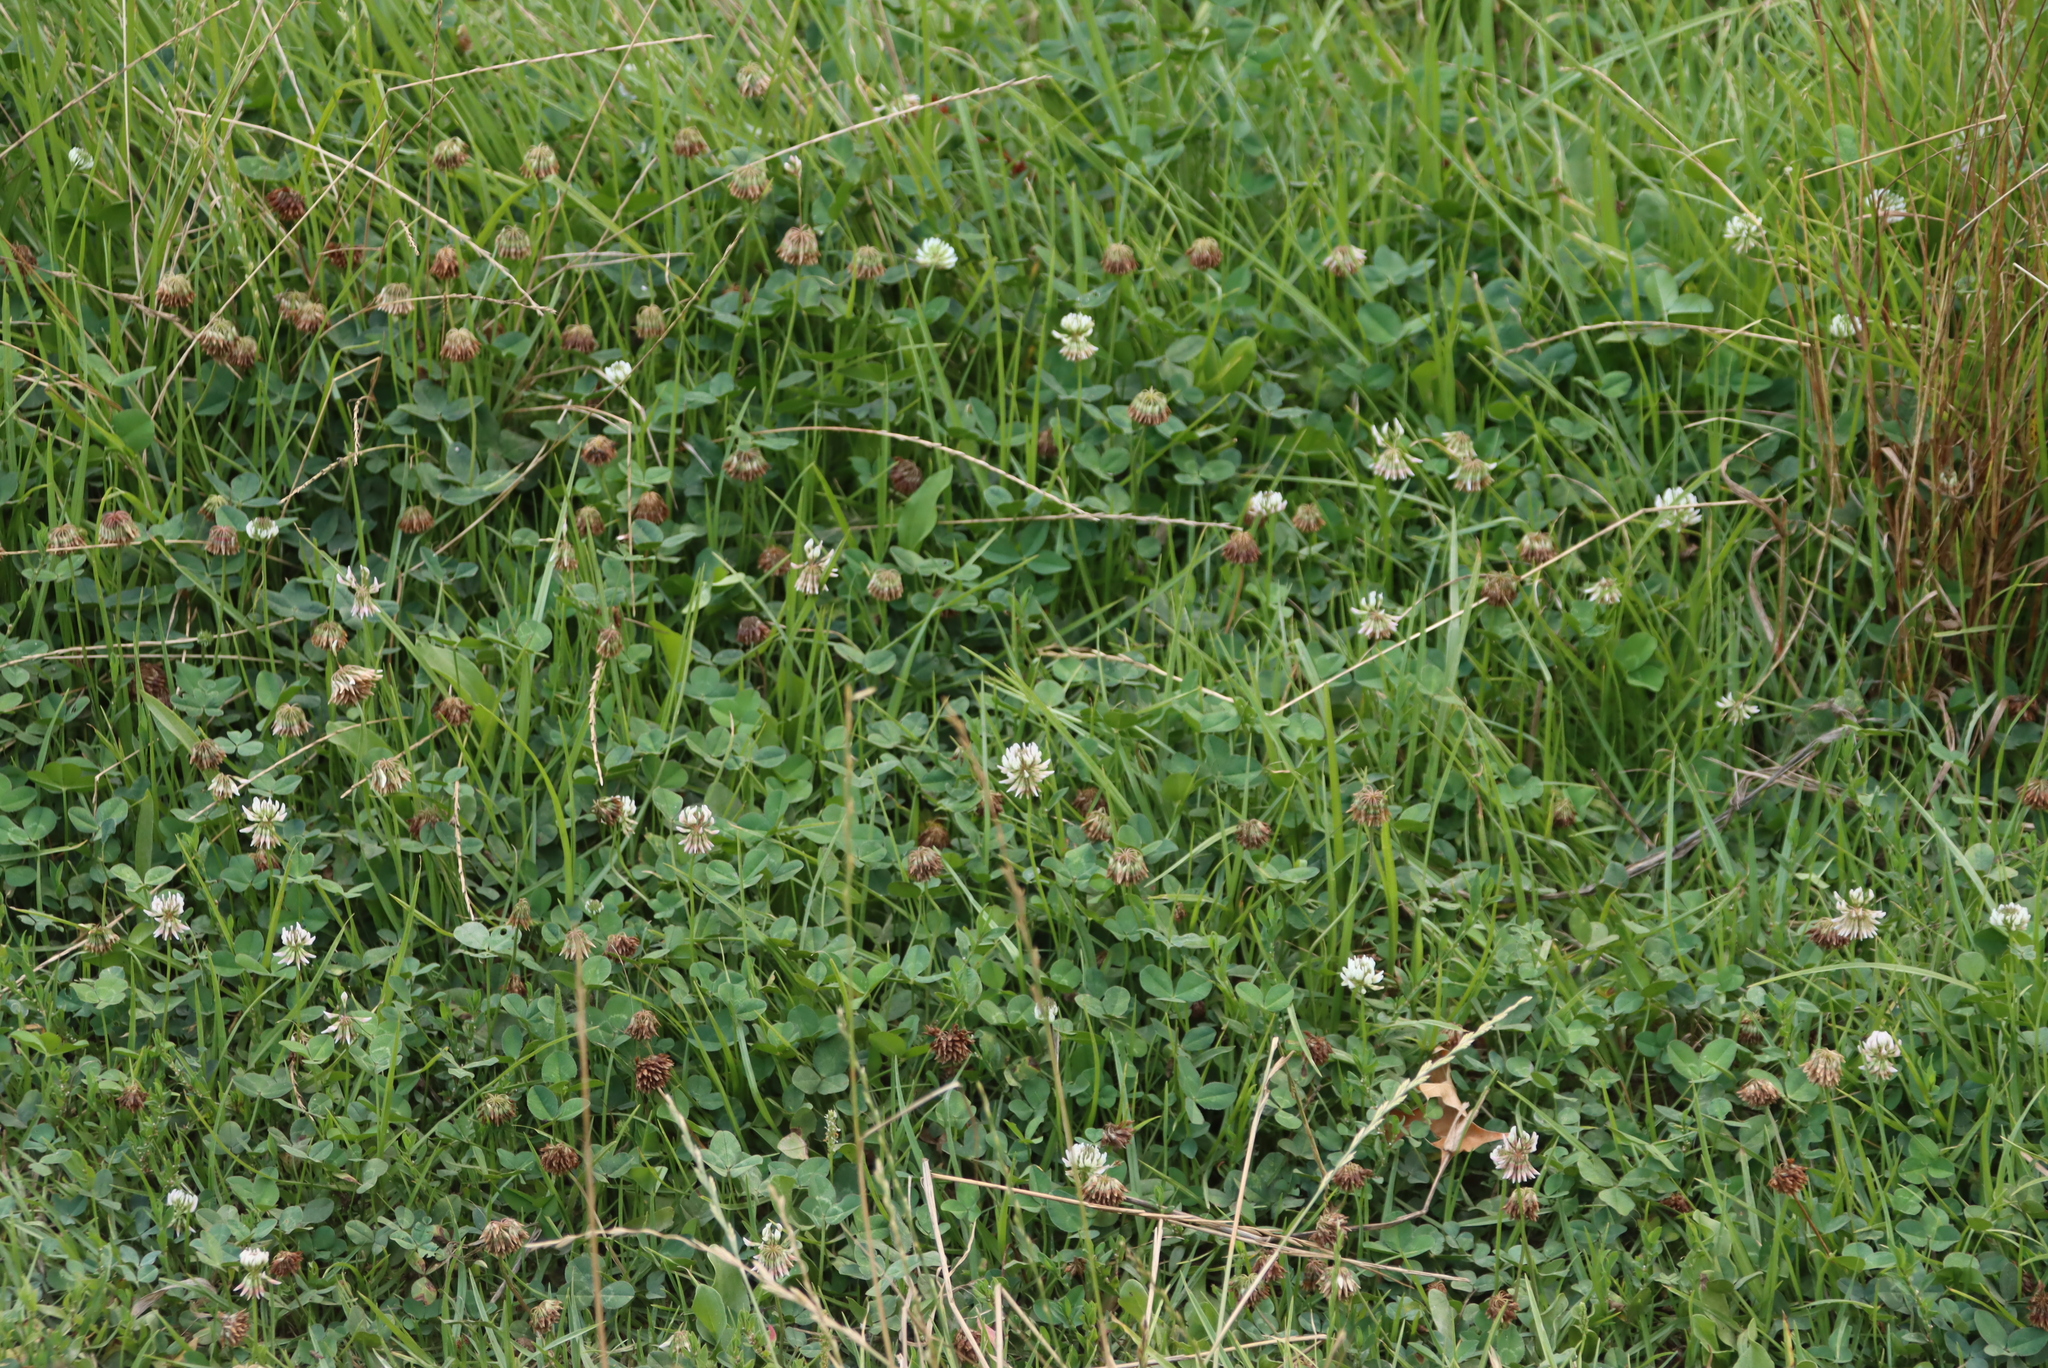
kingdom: Plantae
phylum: Tracheophyta
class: Magnoliopsida
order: Fabales
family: Fabaceae
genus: Trifolium
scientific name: Trifolium repens
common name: White clover
